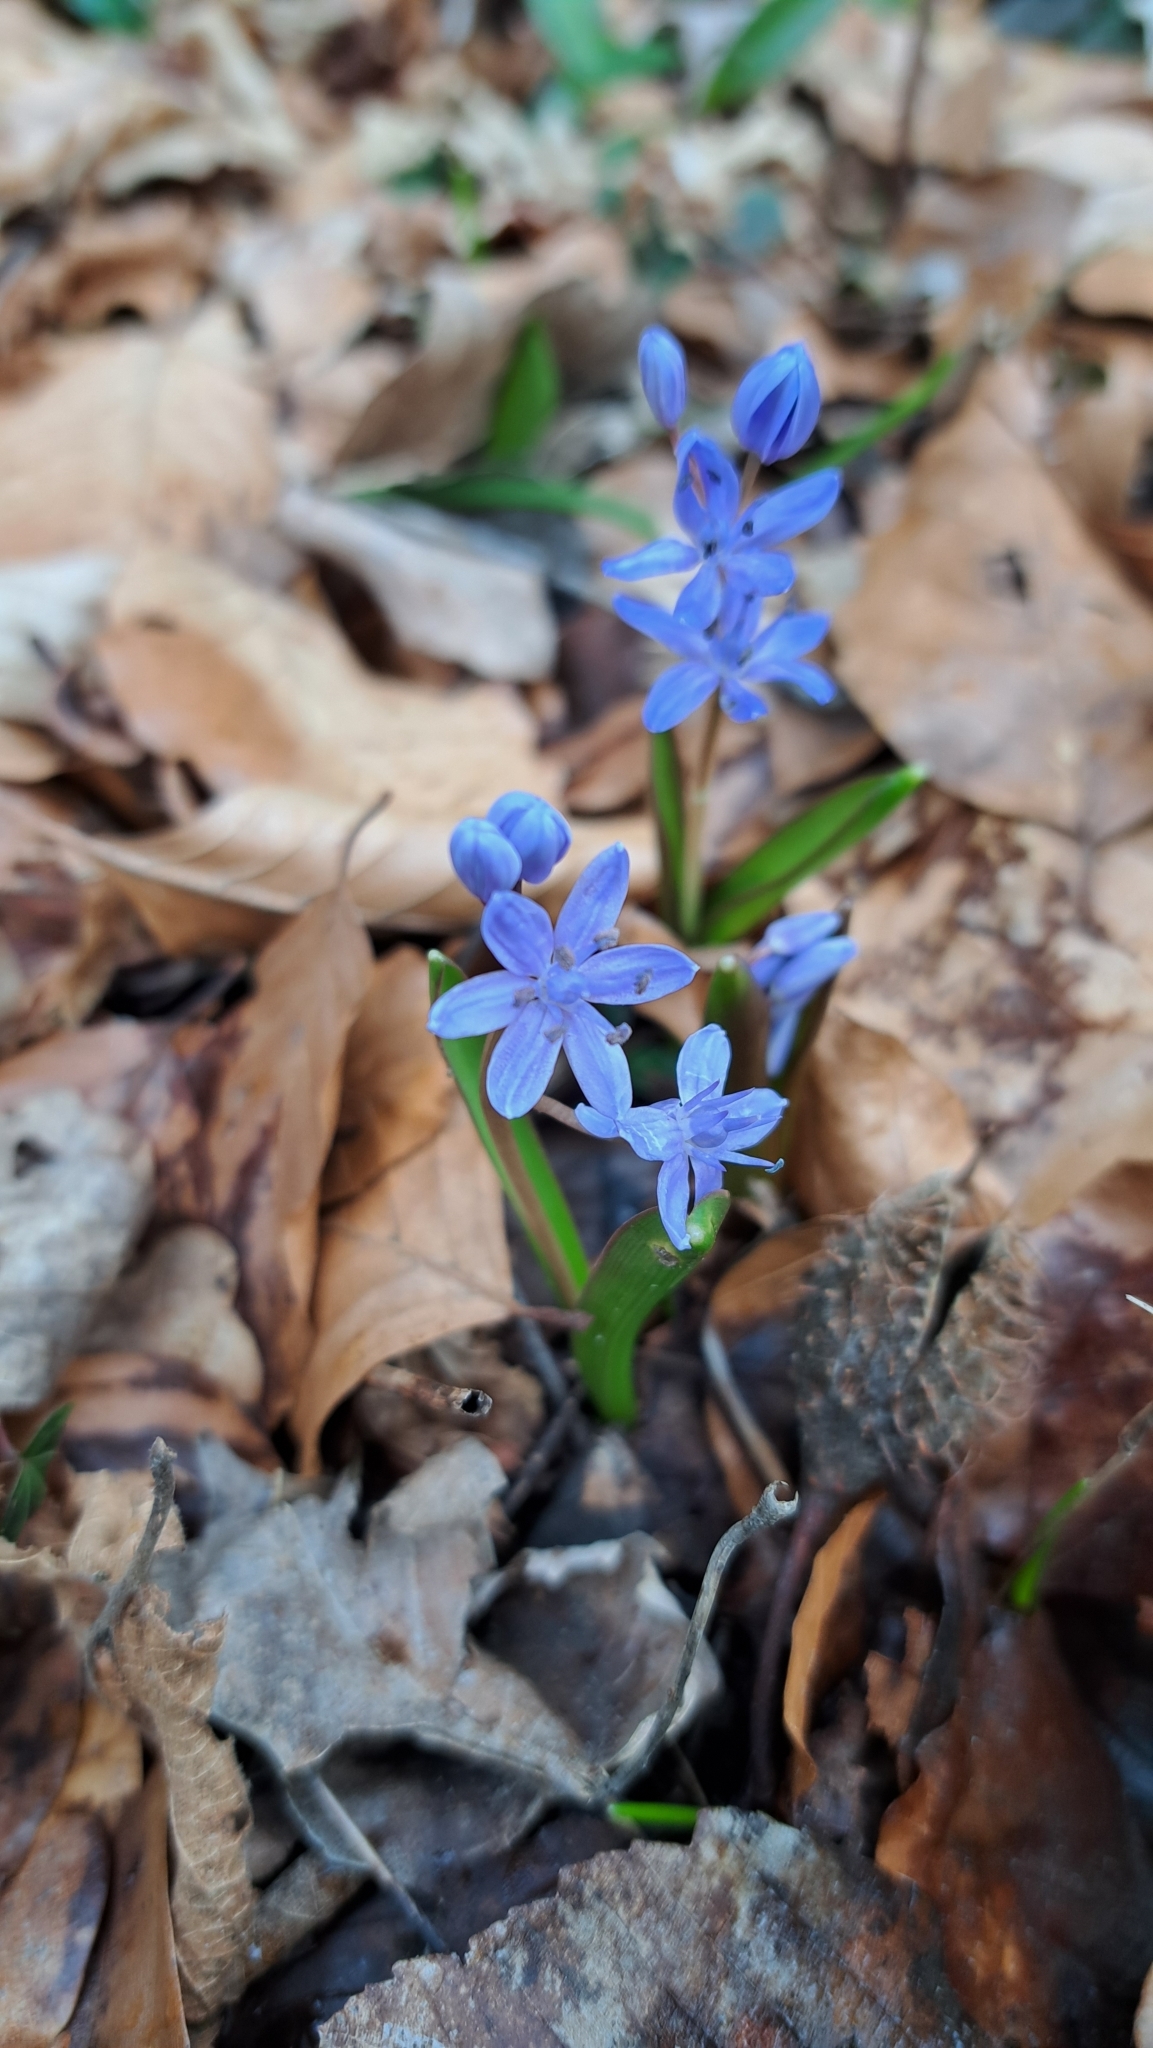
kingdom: Plantae
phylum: Tracheophyta
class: Liliopsida
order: Asparagales
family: Asparagaceae
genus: Scilla
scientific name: Scilla bifolia
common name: Alpine squill
